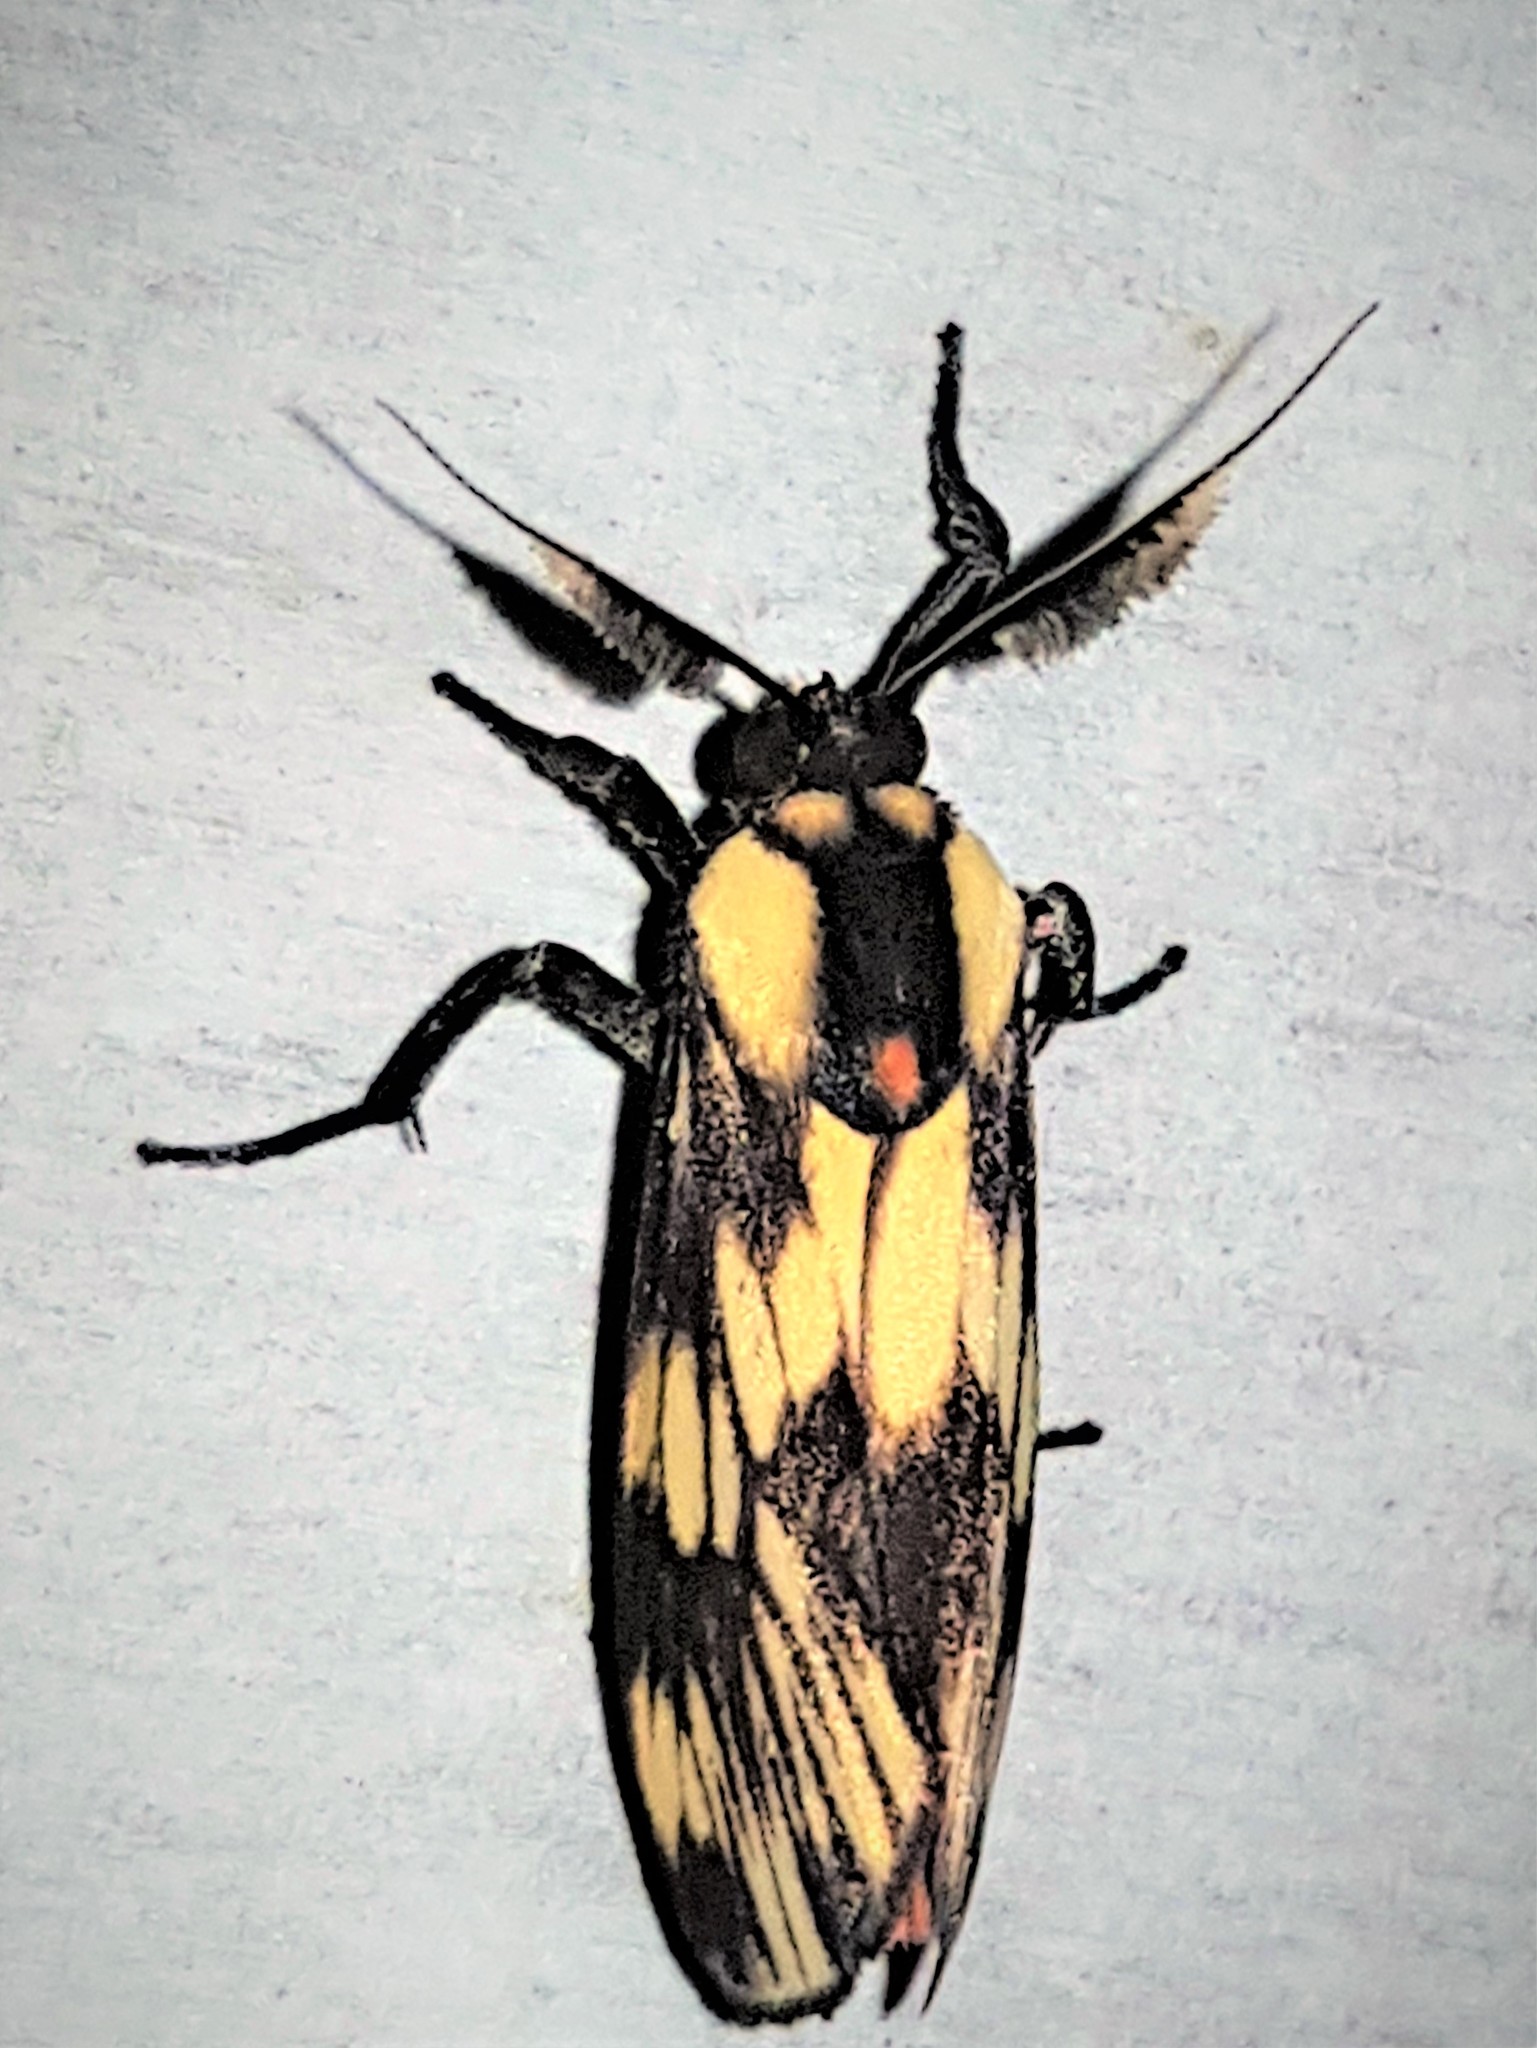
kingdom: Animalia
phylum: Arthropoda
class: Insecta
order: Lepidoptera
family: Erebidae
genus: Ardonea
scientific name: Ardonea tenebrosa
